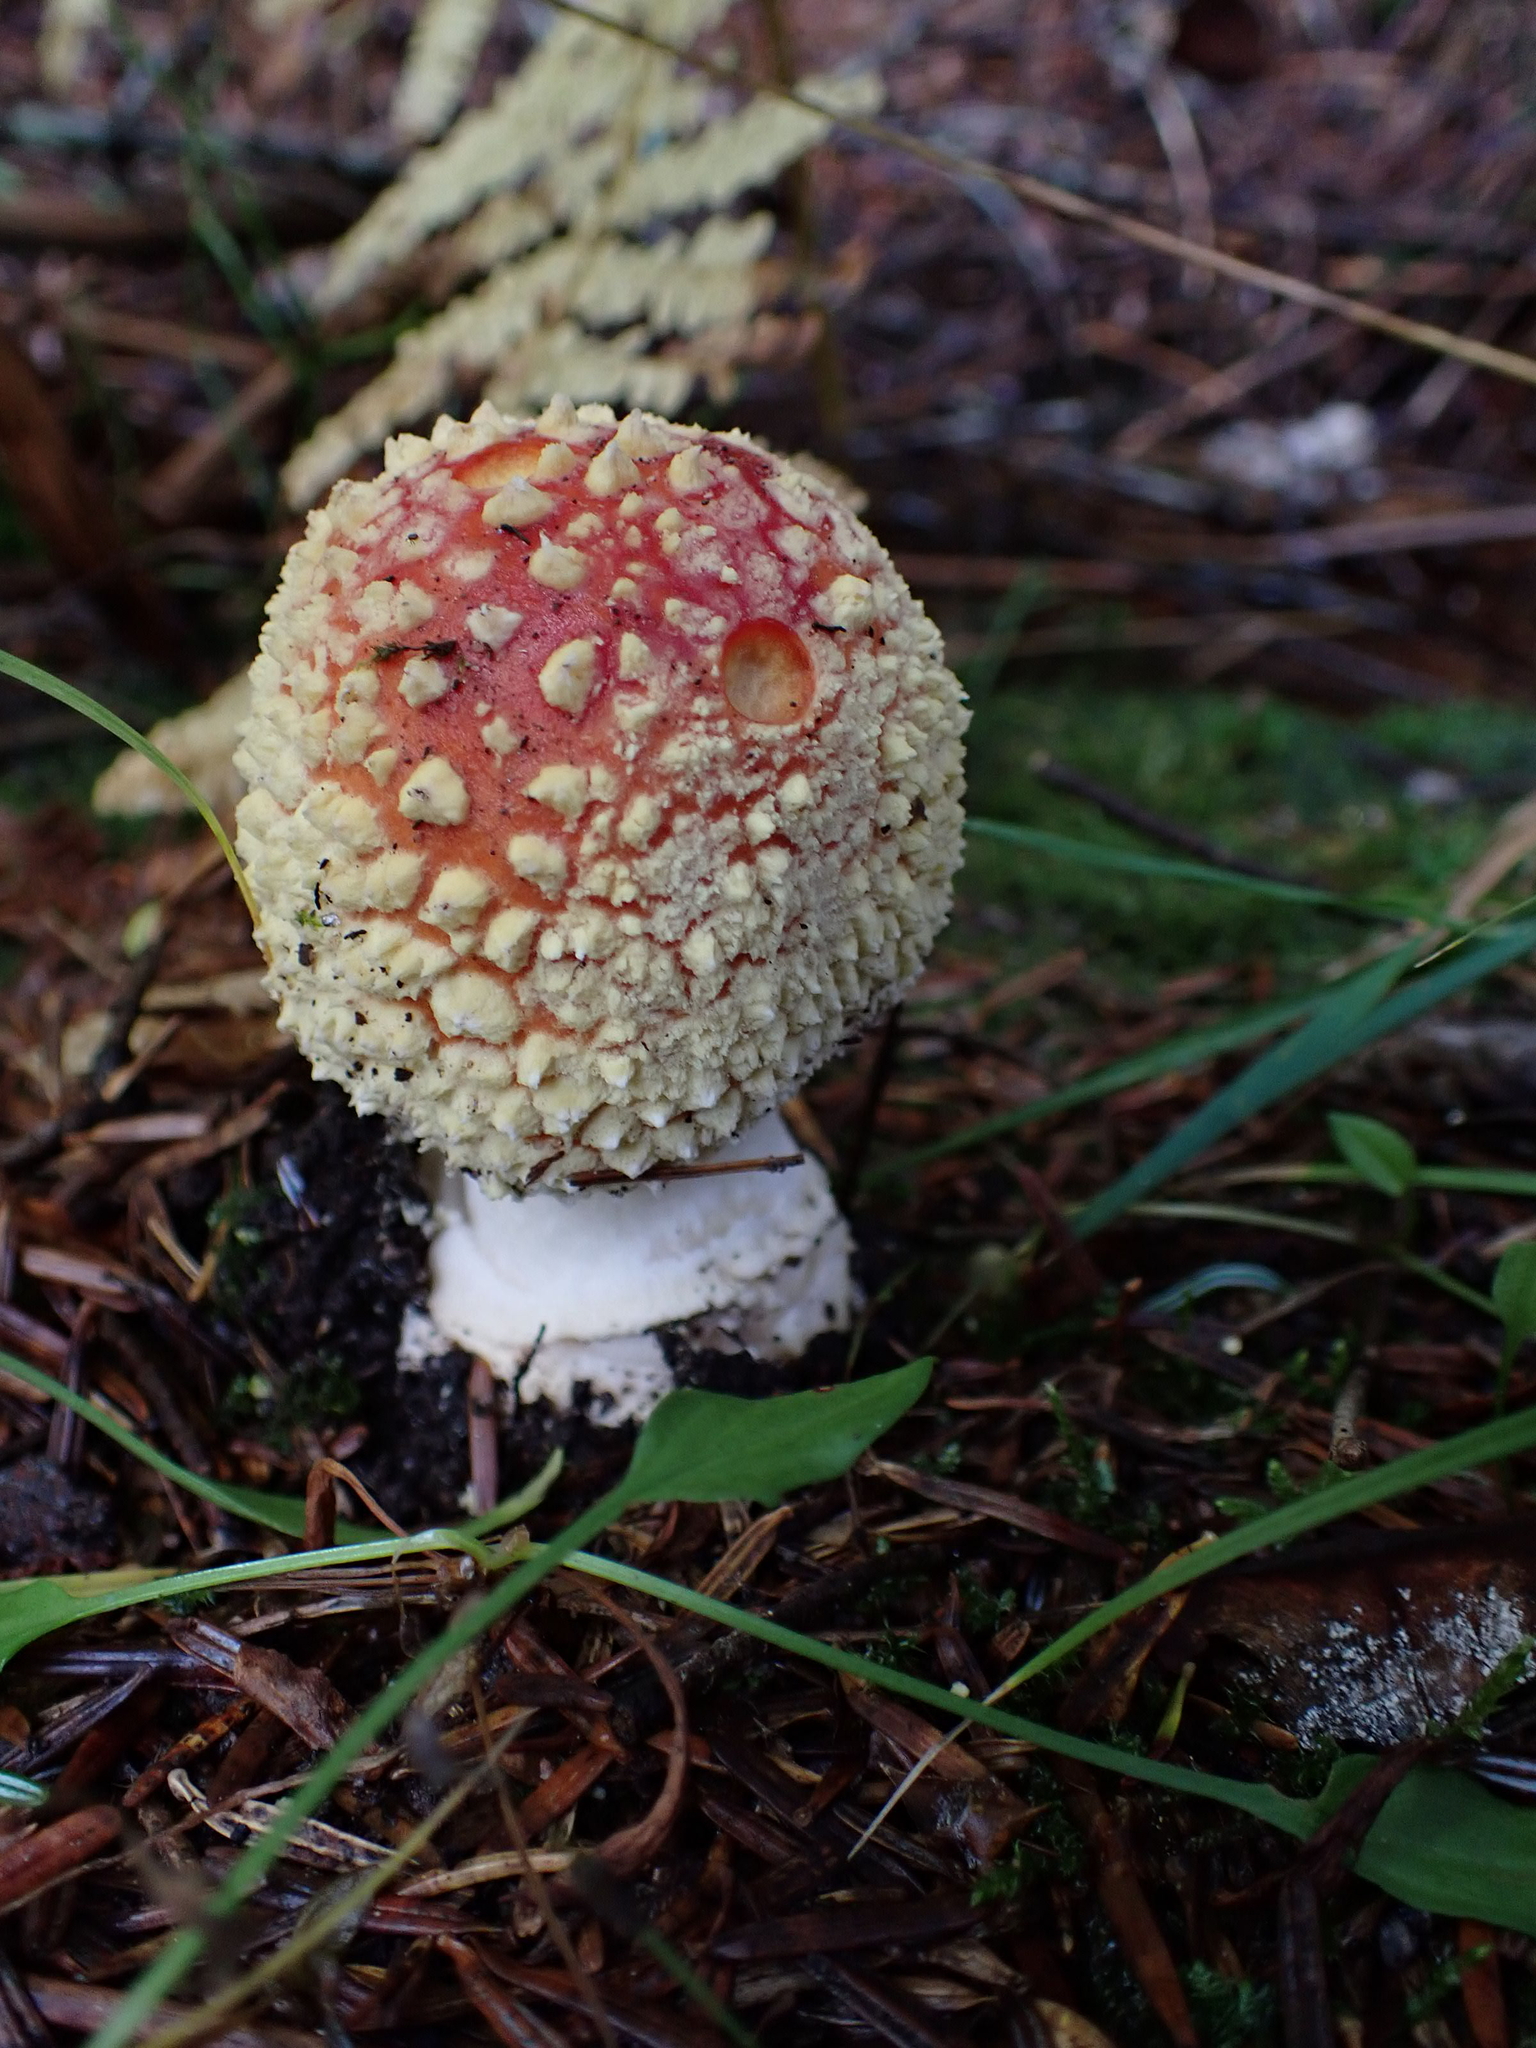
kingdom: Fungi
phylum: Basidiomycota
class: Agaricomycetes
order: Agaricales
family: Amanitaceae
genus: Amanita
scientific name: Amanita muscaria
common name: Fly agaric
